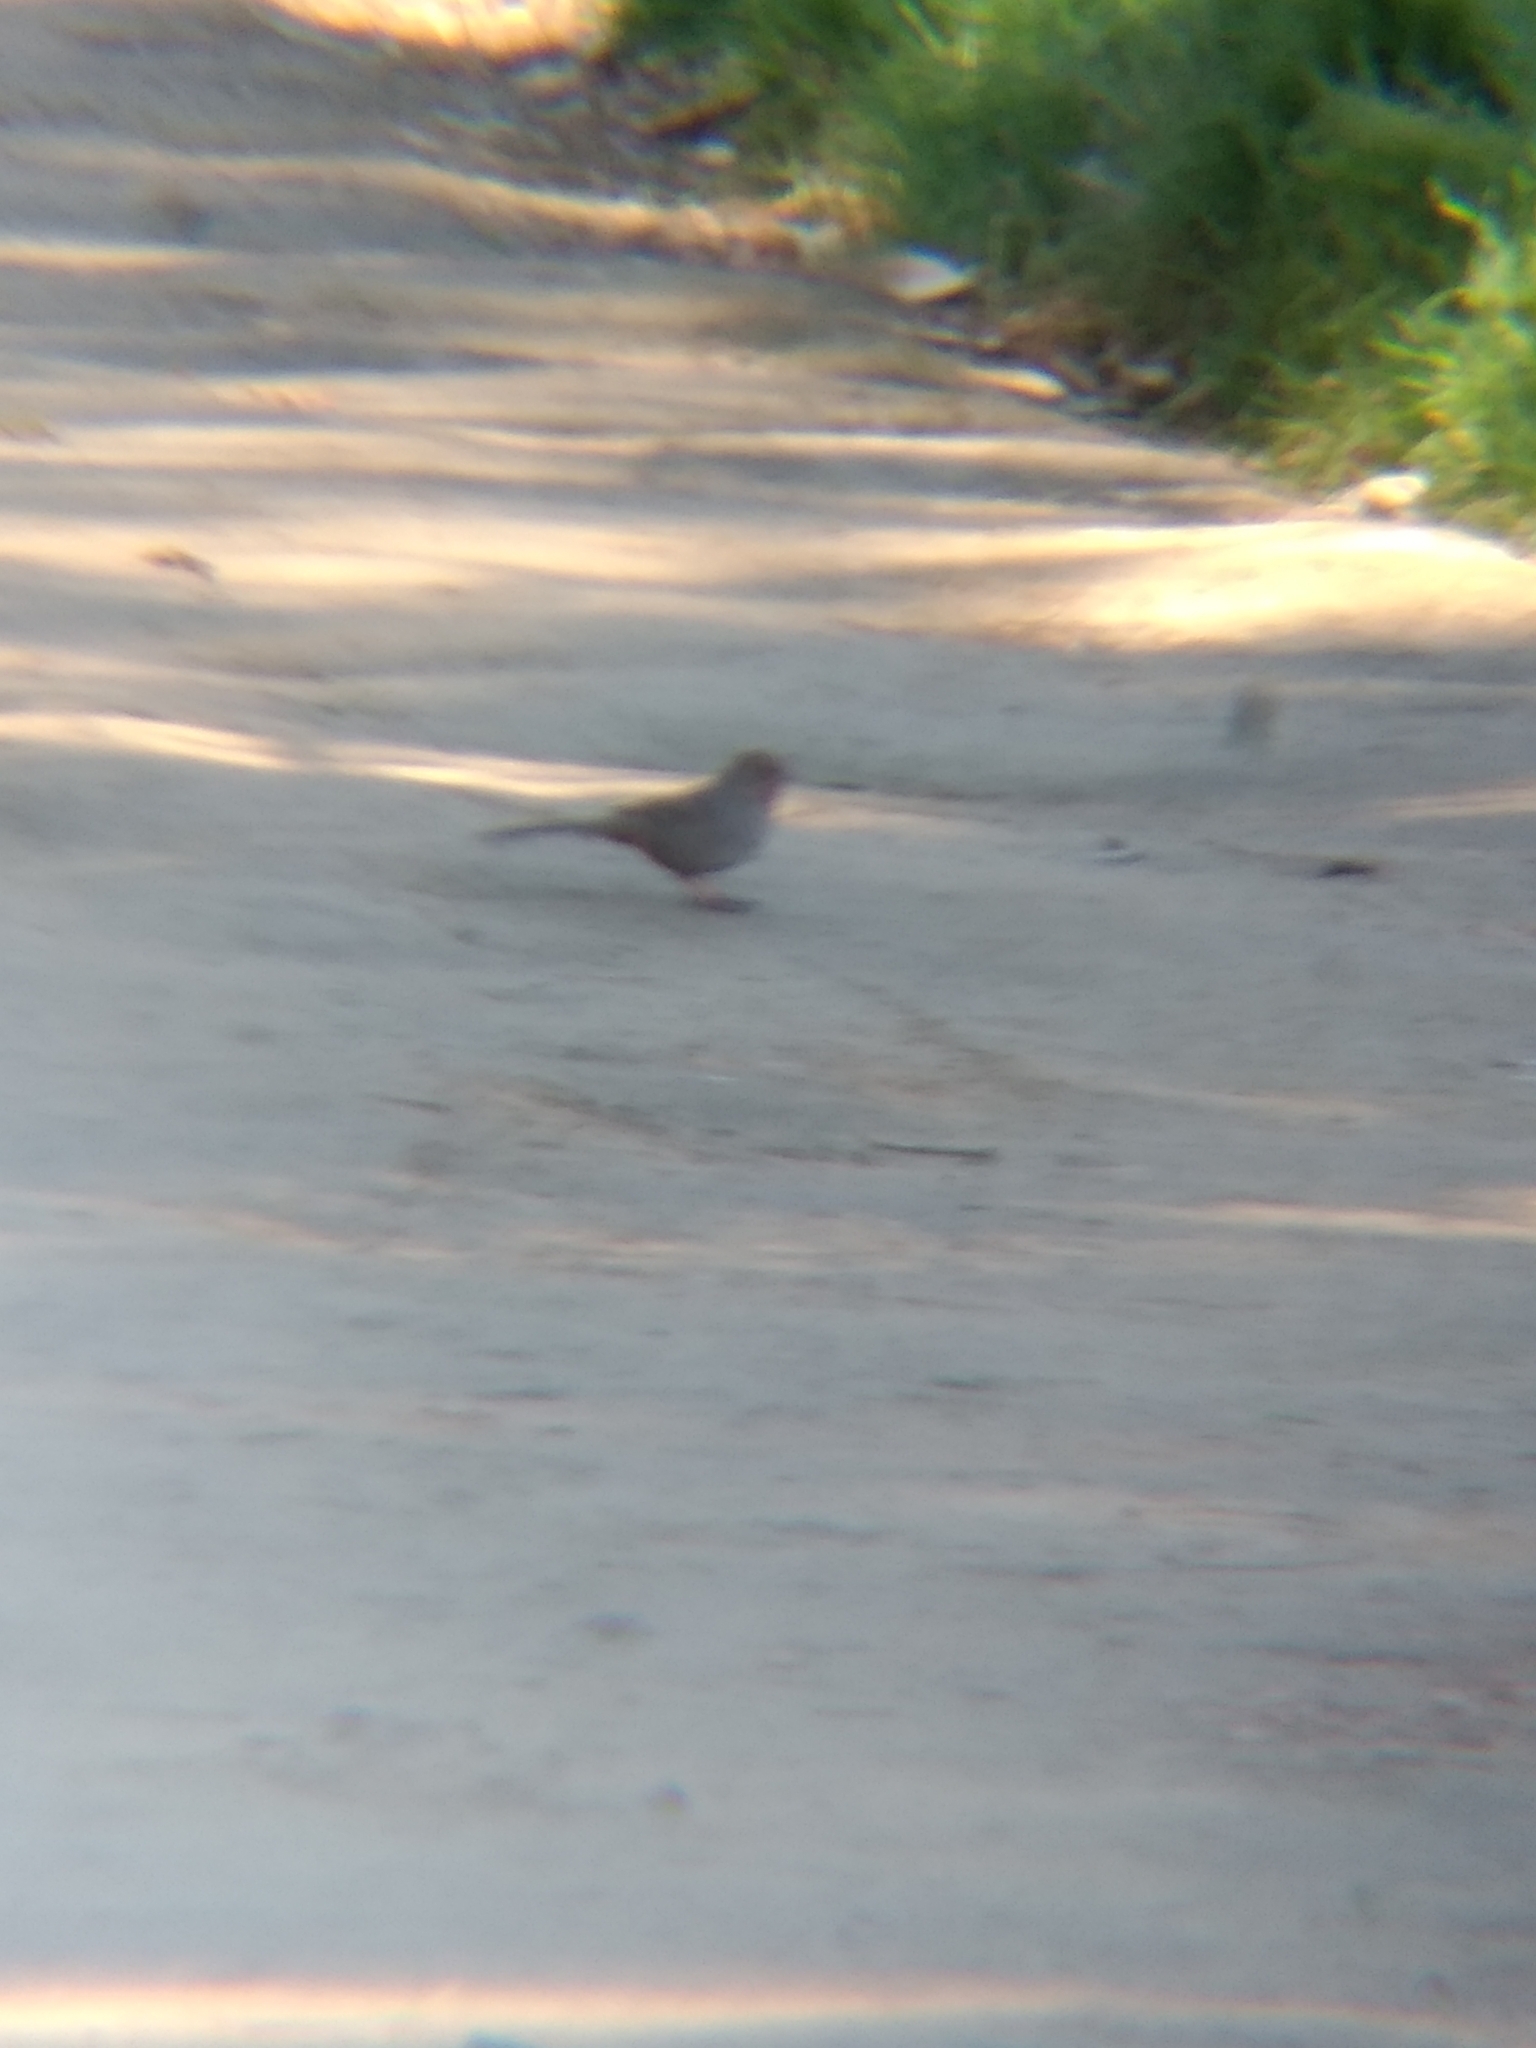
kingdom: Animalia
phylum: Chordata
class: Aves
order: Passeriformes
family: Passerellidae
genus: Melozone
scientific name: Melozone crissalis
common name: California towhee
